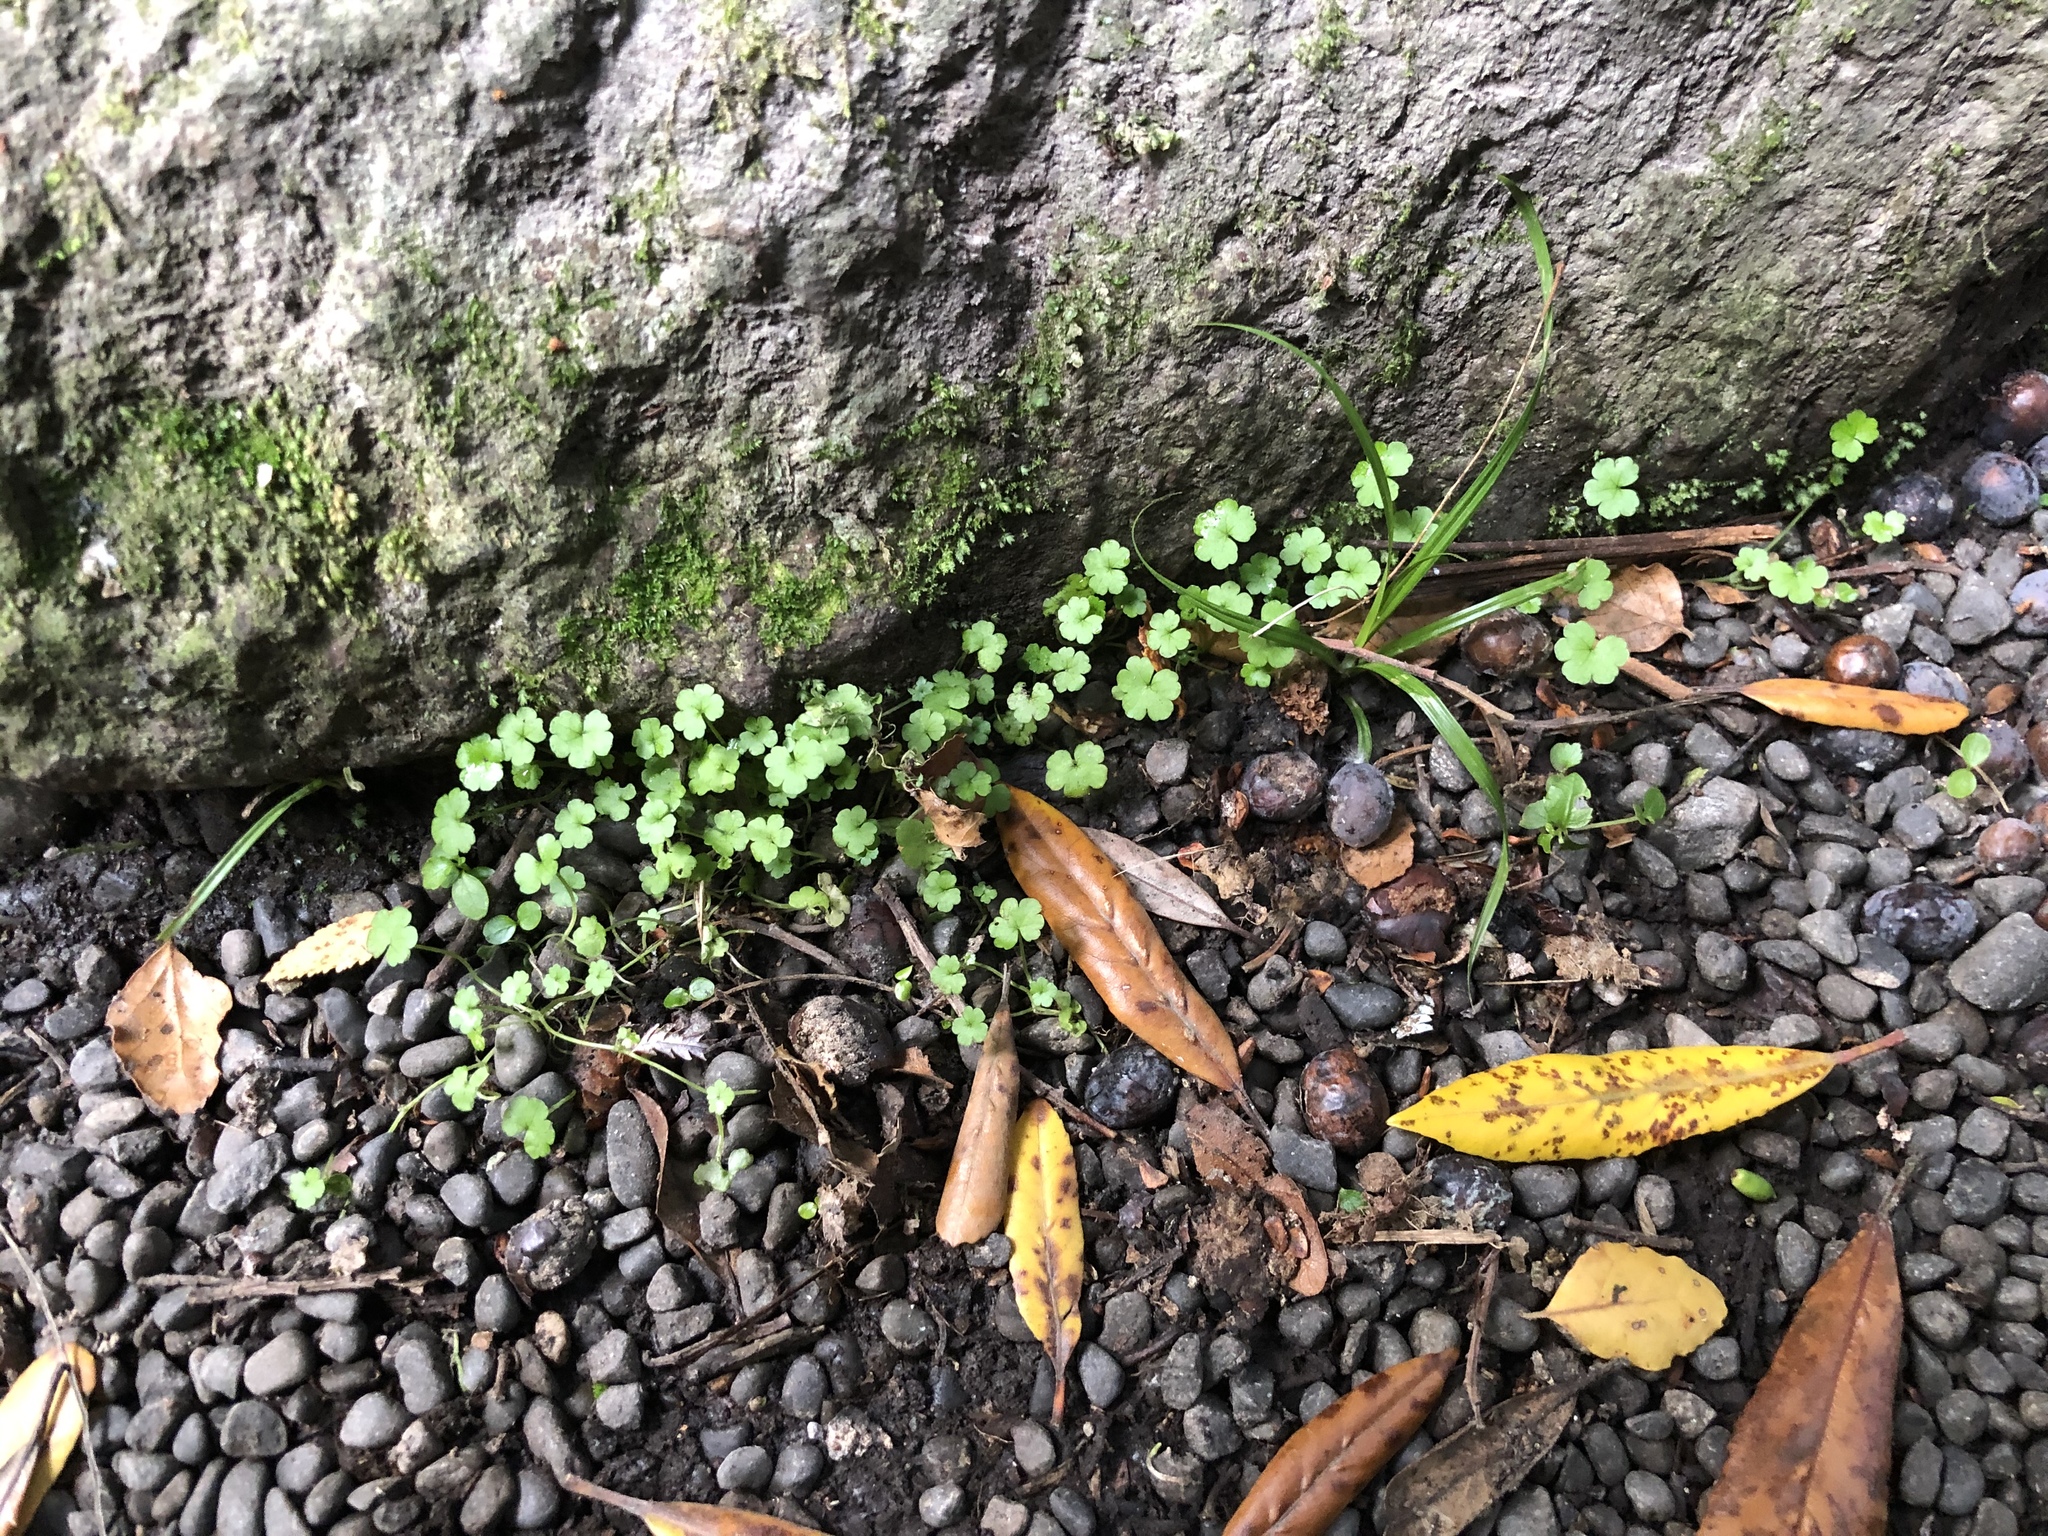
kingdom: Plantae
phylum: Tracheophyta
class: Magnoliopsida
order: Apiales
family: Araliaceae
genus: Hydrocotyle
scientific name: Hydrocotyle heteromeria
